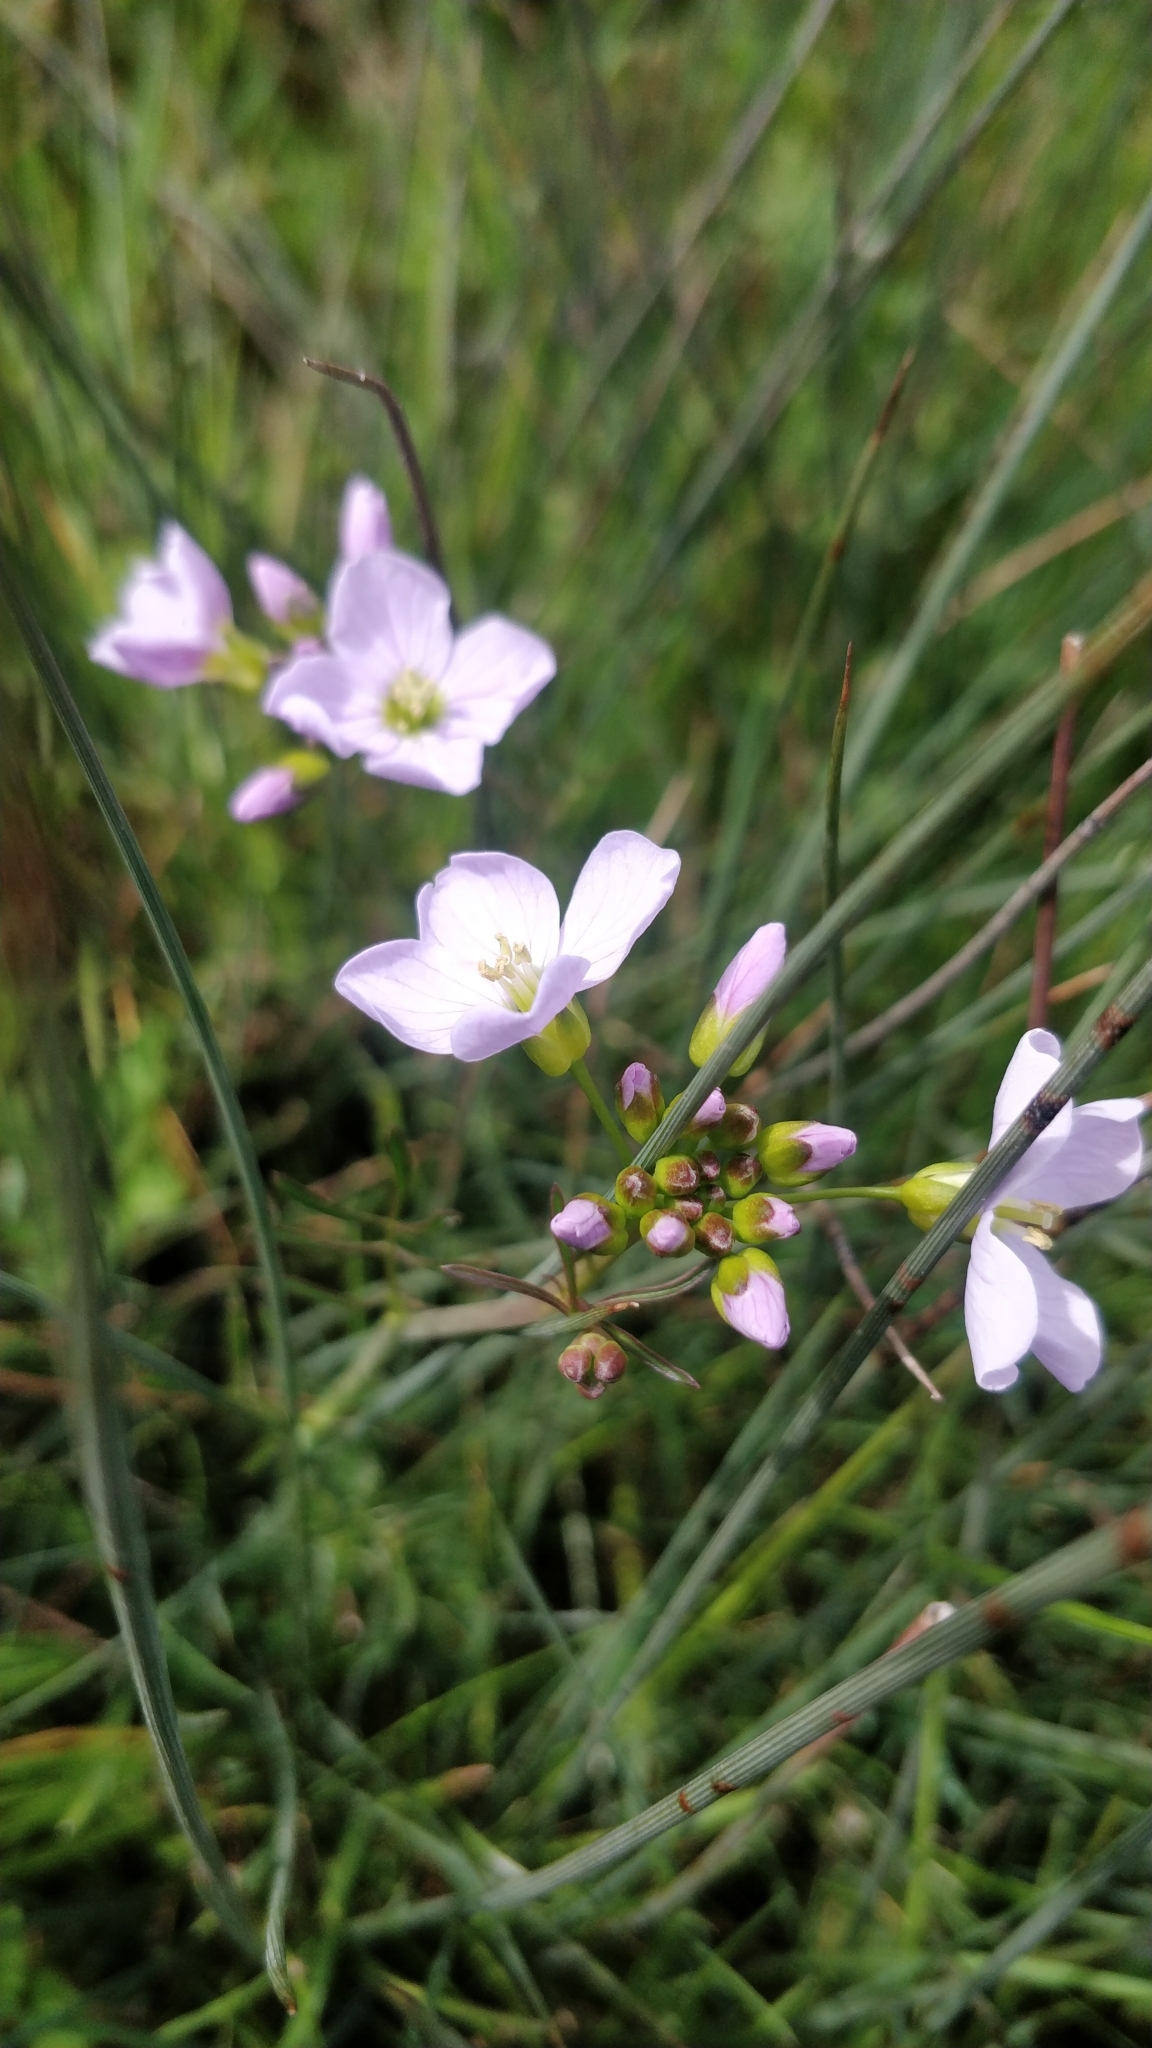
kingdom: Plantae
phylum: Tracheophyta
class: Magnoliopsida
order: Brassicales
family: Brassicaceae
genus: Cardamine
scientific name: Cardamine pratensis
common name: Cuckoo flower
